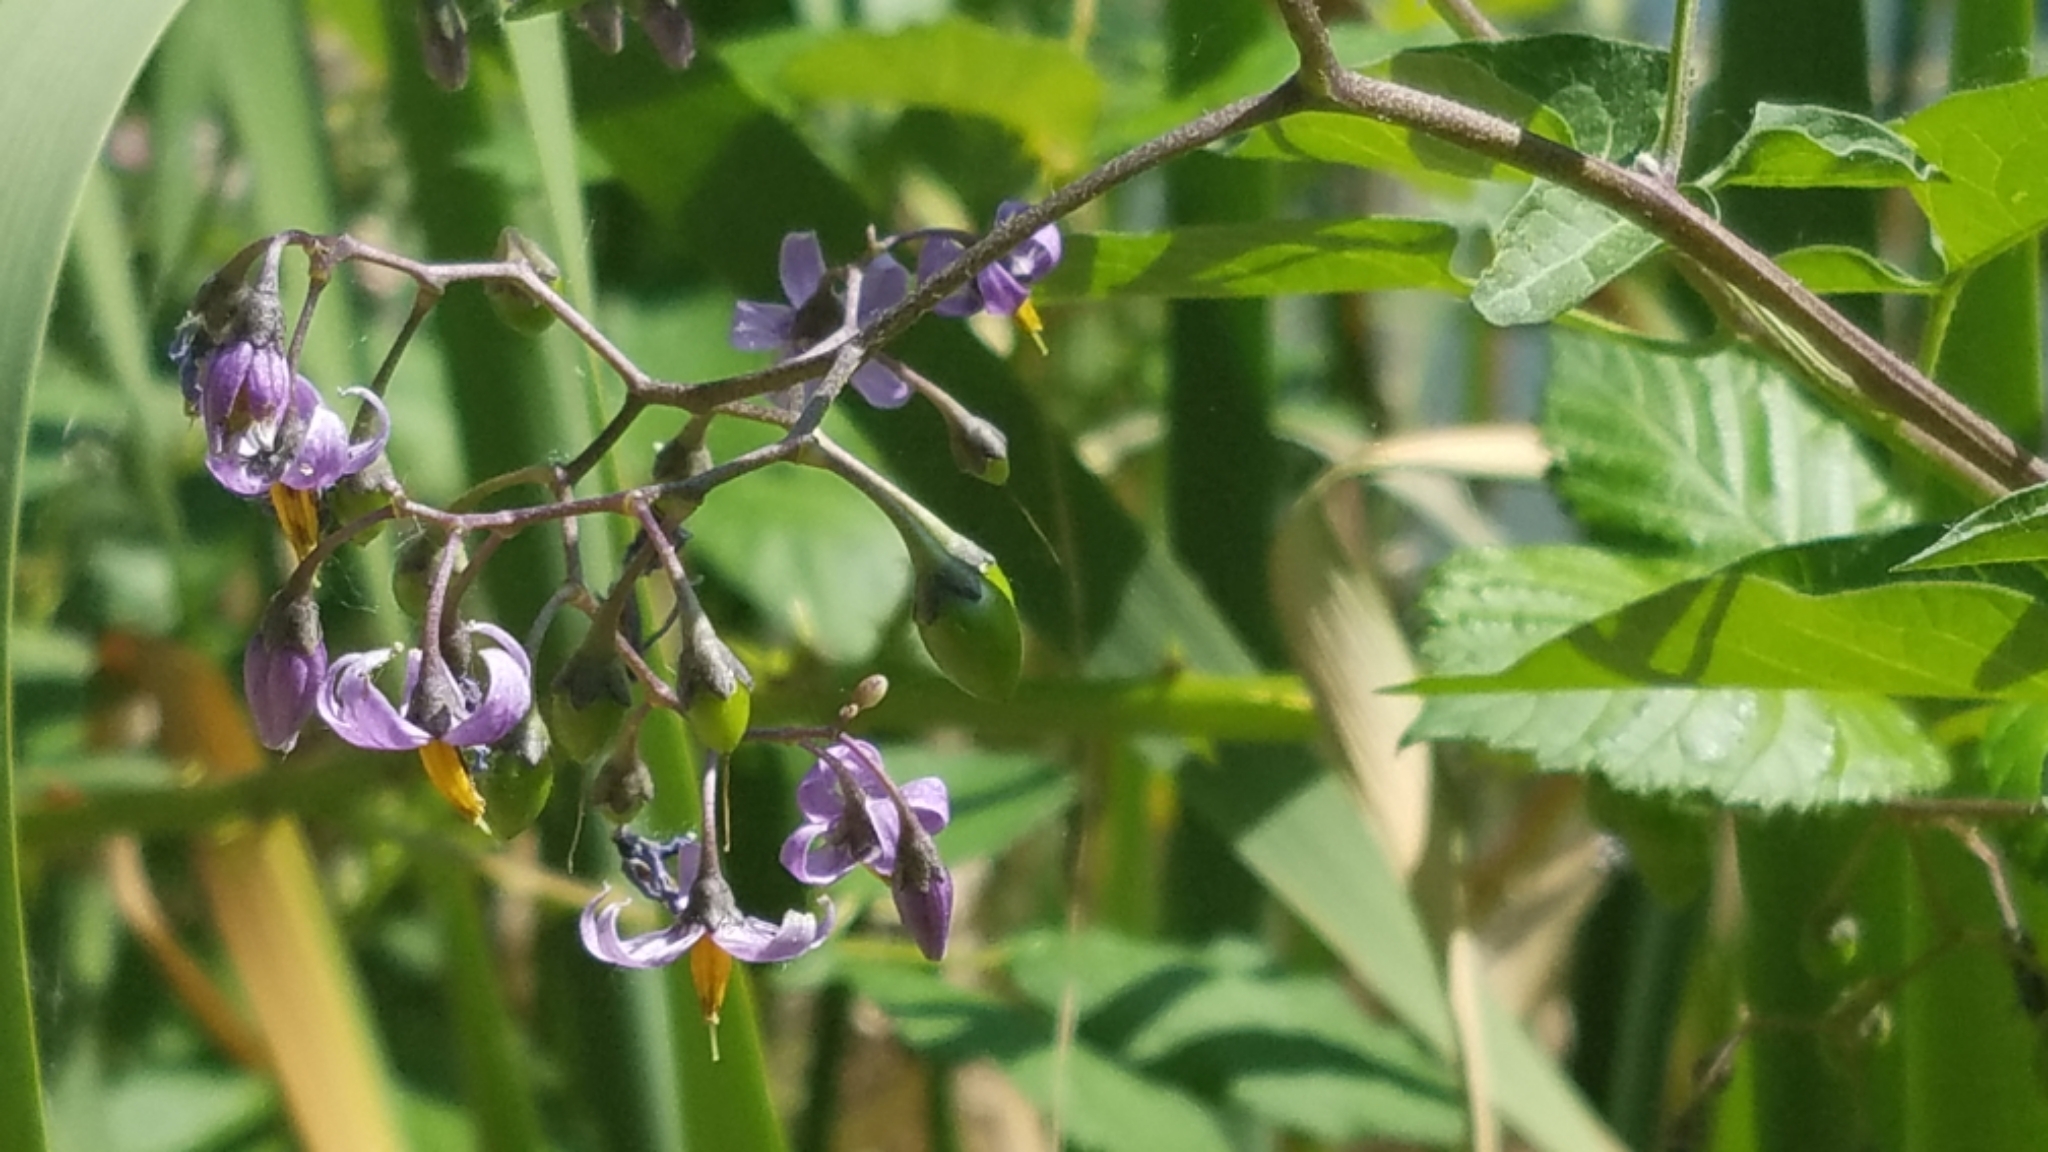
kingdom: Plantae
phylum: Tracheophyta
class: Magnoliopsida
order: Solanales
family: Solanaceae
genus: Solanum
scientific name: Solanum dulcamara
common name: Climbing nightshade
